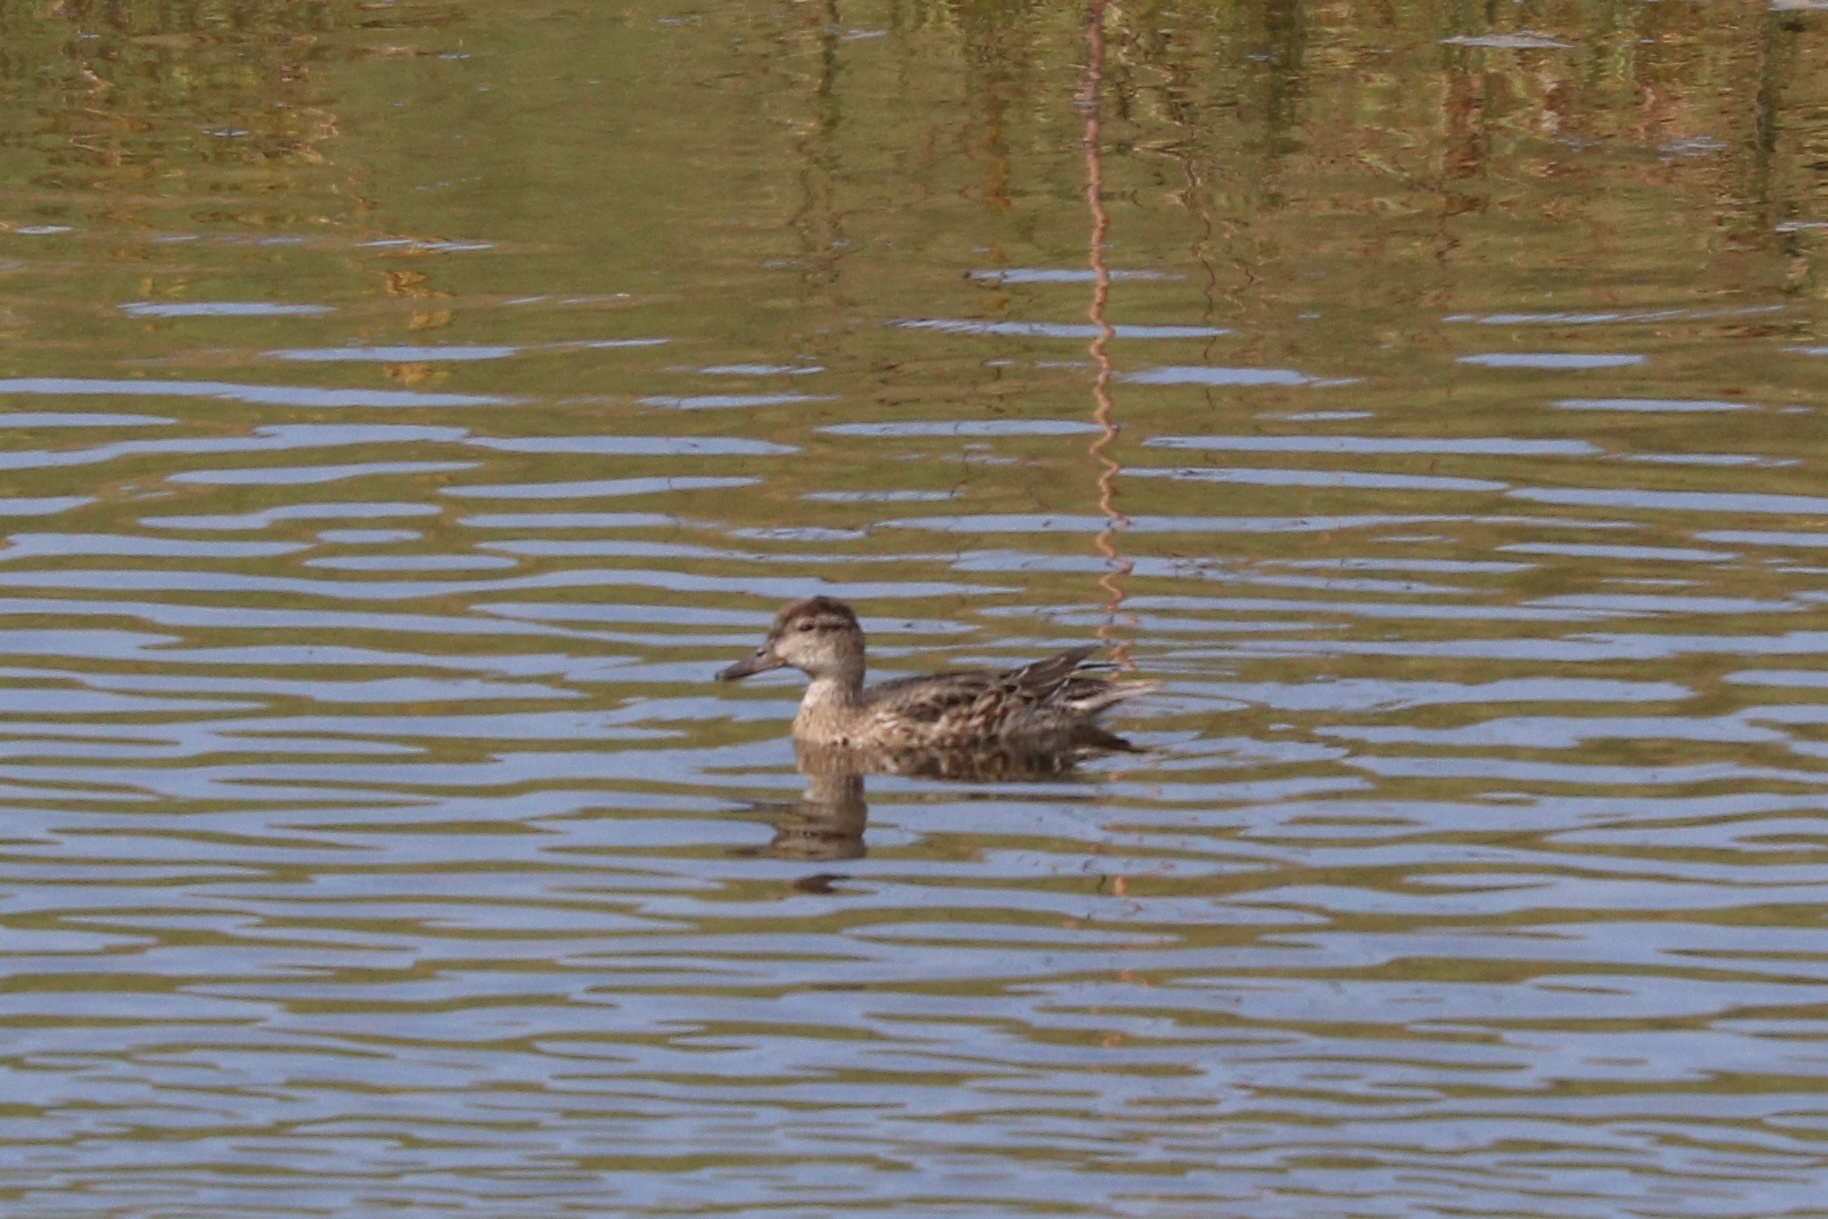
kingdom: Animalia
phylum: Chordata
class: Aves
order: Anseriformes
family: Anatidae
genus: Anas
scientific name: Anas crecca
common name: Eurasian teal
